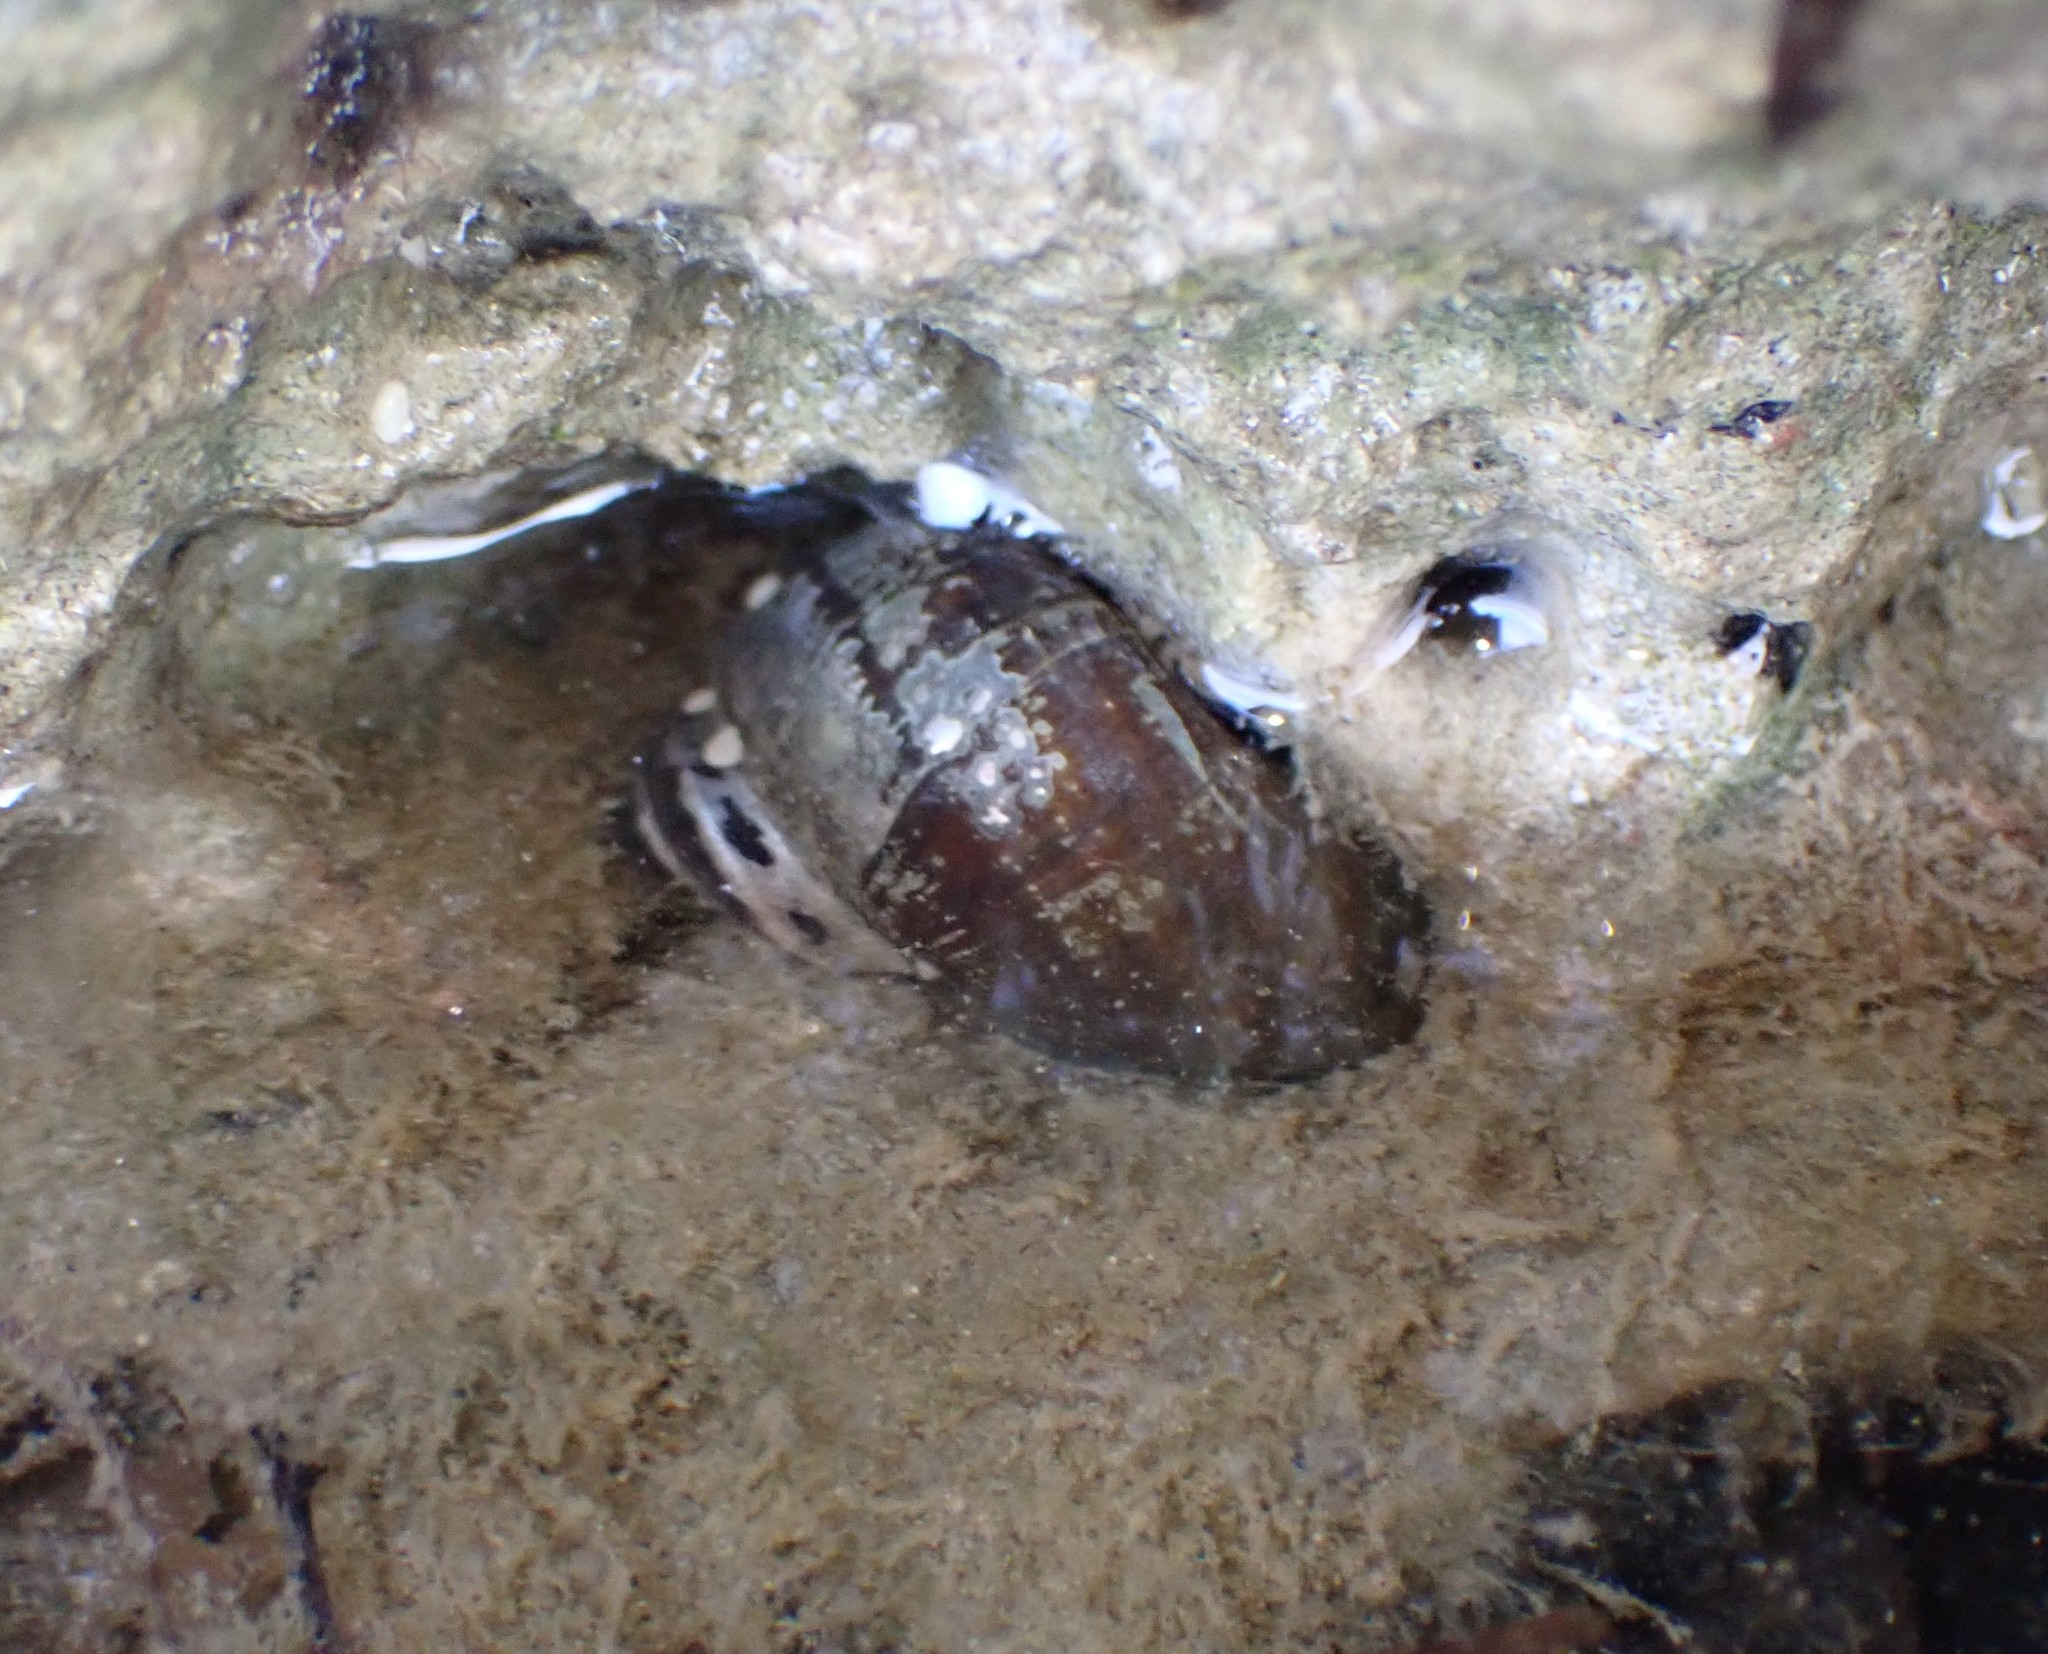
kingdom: Animalia
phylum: Mollusca
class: Gastropoda
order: Trochida
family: Turbinidae
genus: Lunella
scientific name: Lunella smaragda
